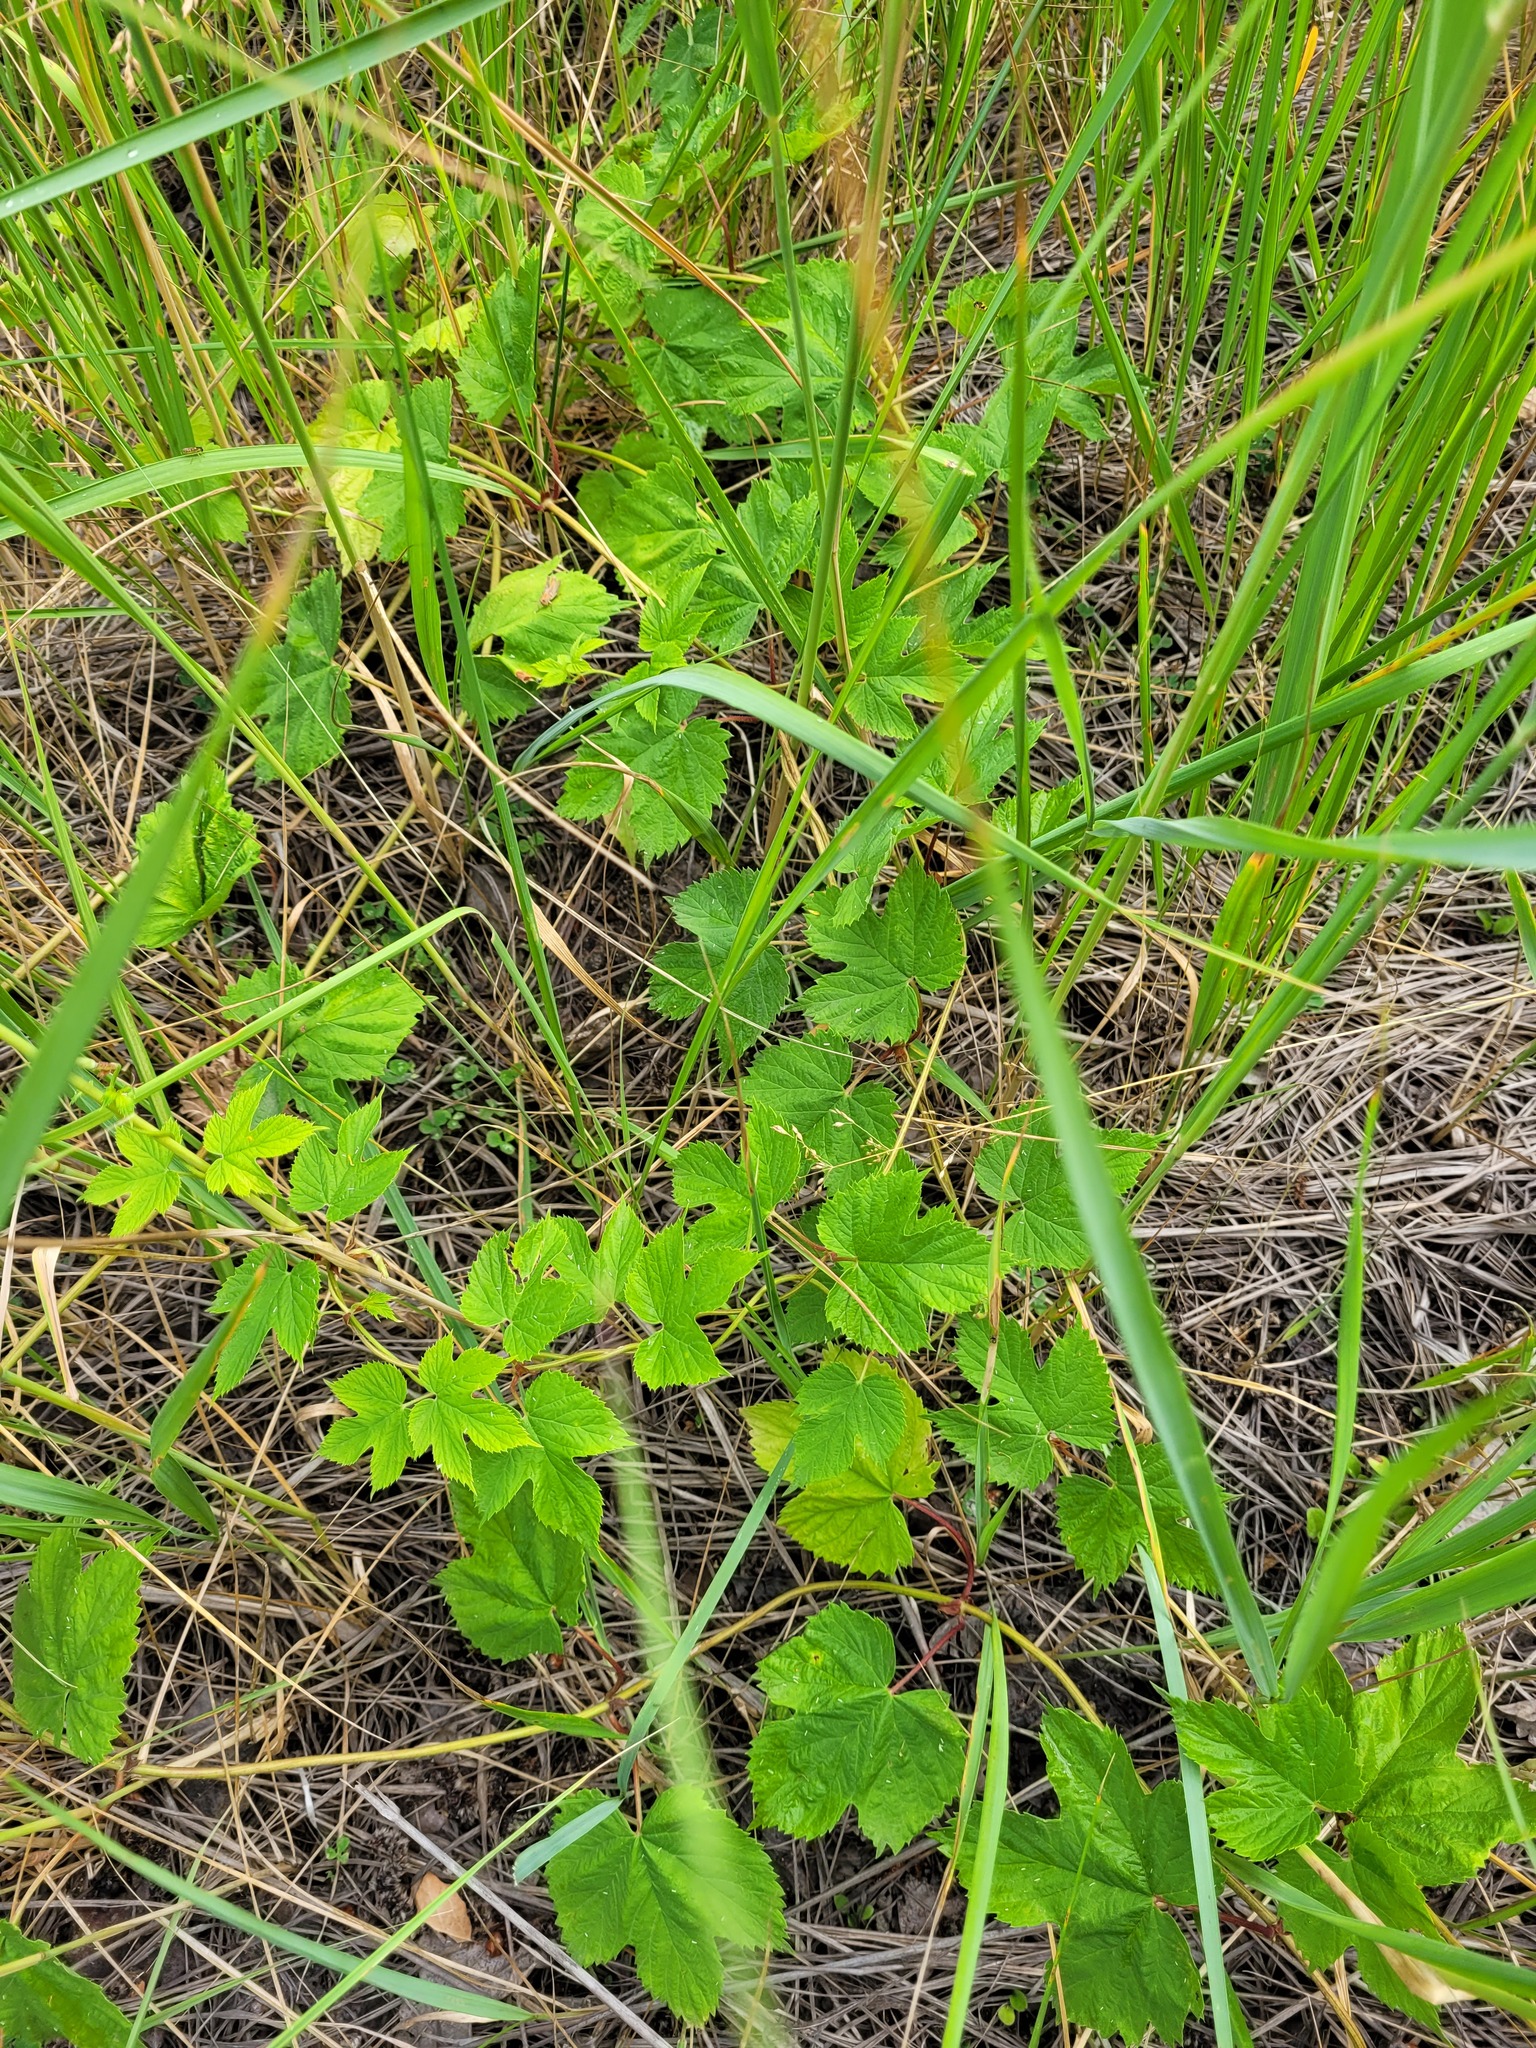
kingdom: Plantae
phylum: Tracheophyta
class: Magnoliopsida
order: Rosales
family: Cannabaceae
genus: Humulus
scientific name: Humulus lupulus
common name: Hop
